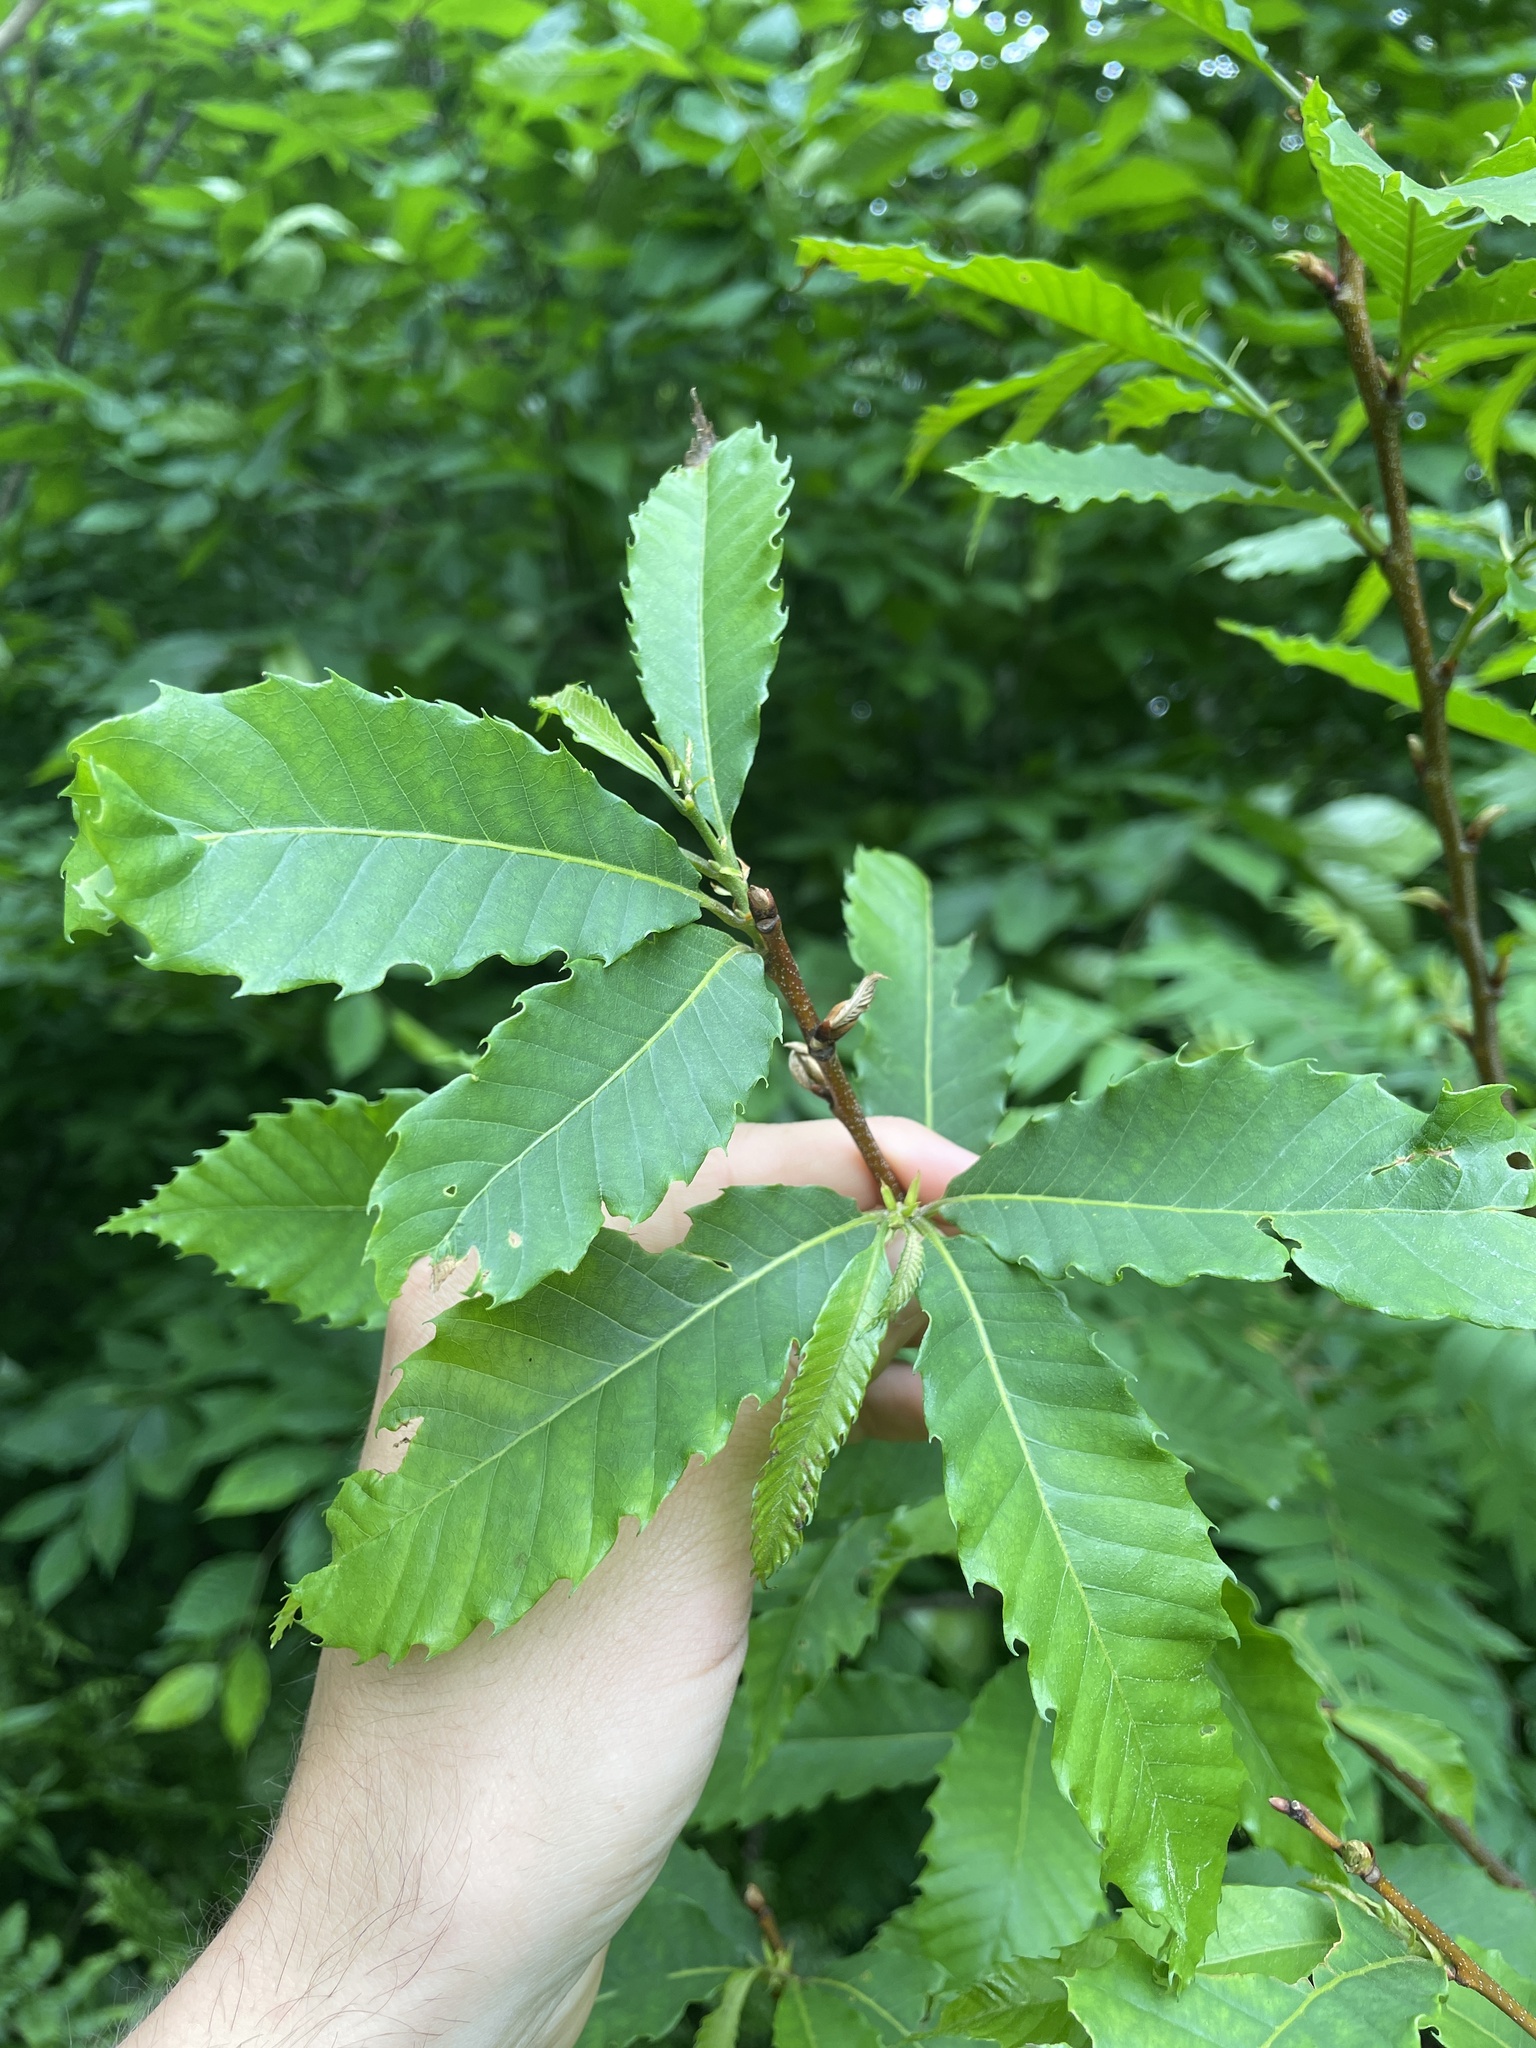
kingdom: Plantae
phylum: Tracheophyta
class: Magnoliopsida
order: Fagales
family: Fagaceae
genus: Castanea
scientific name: Castanea dentata
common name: American chestnut
